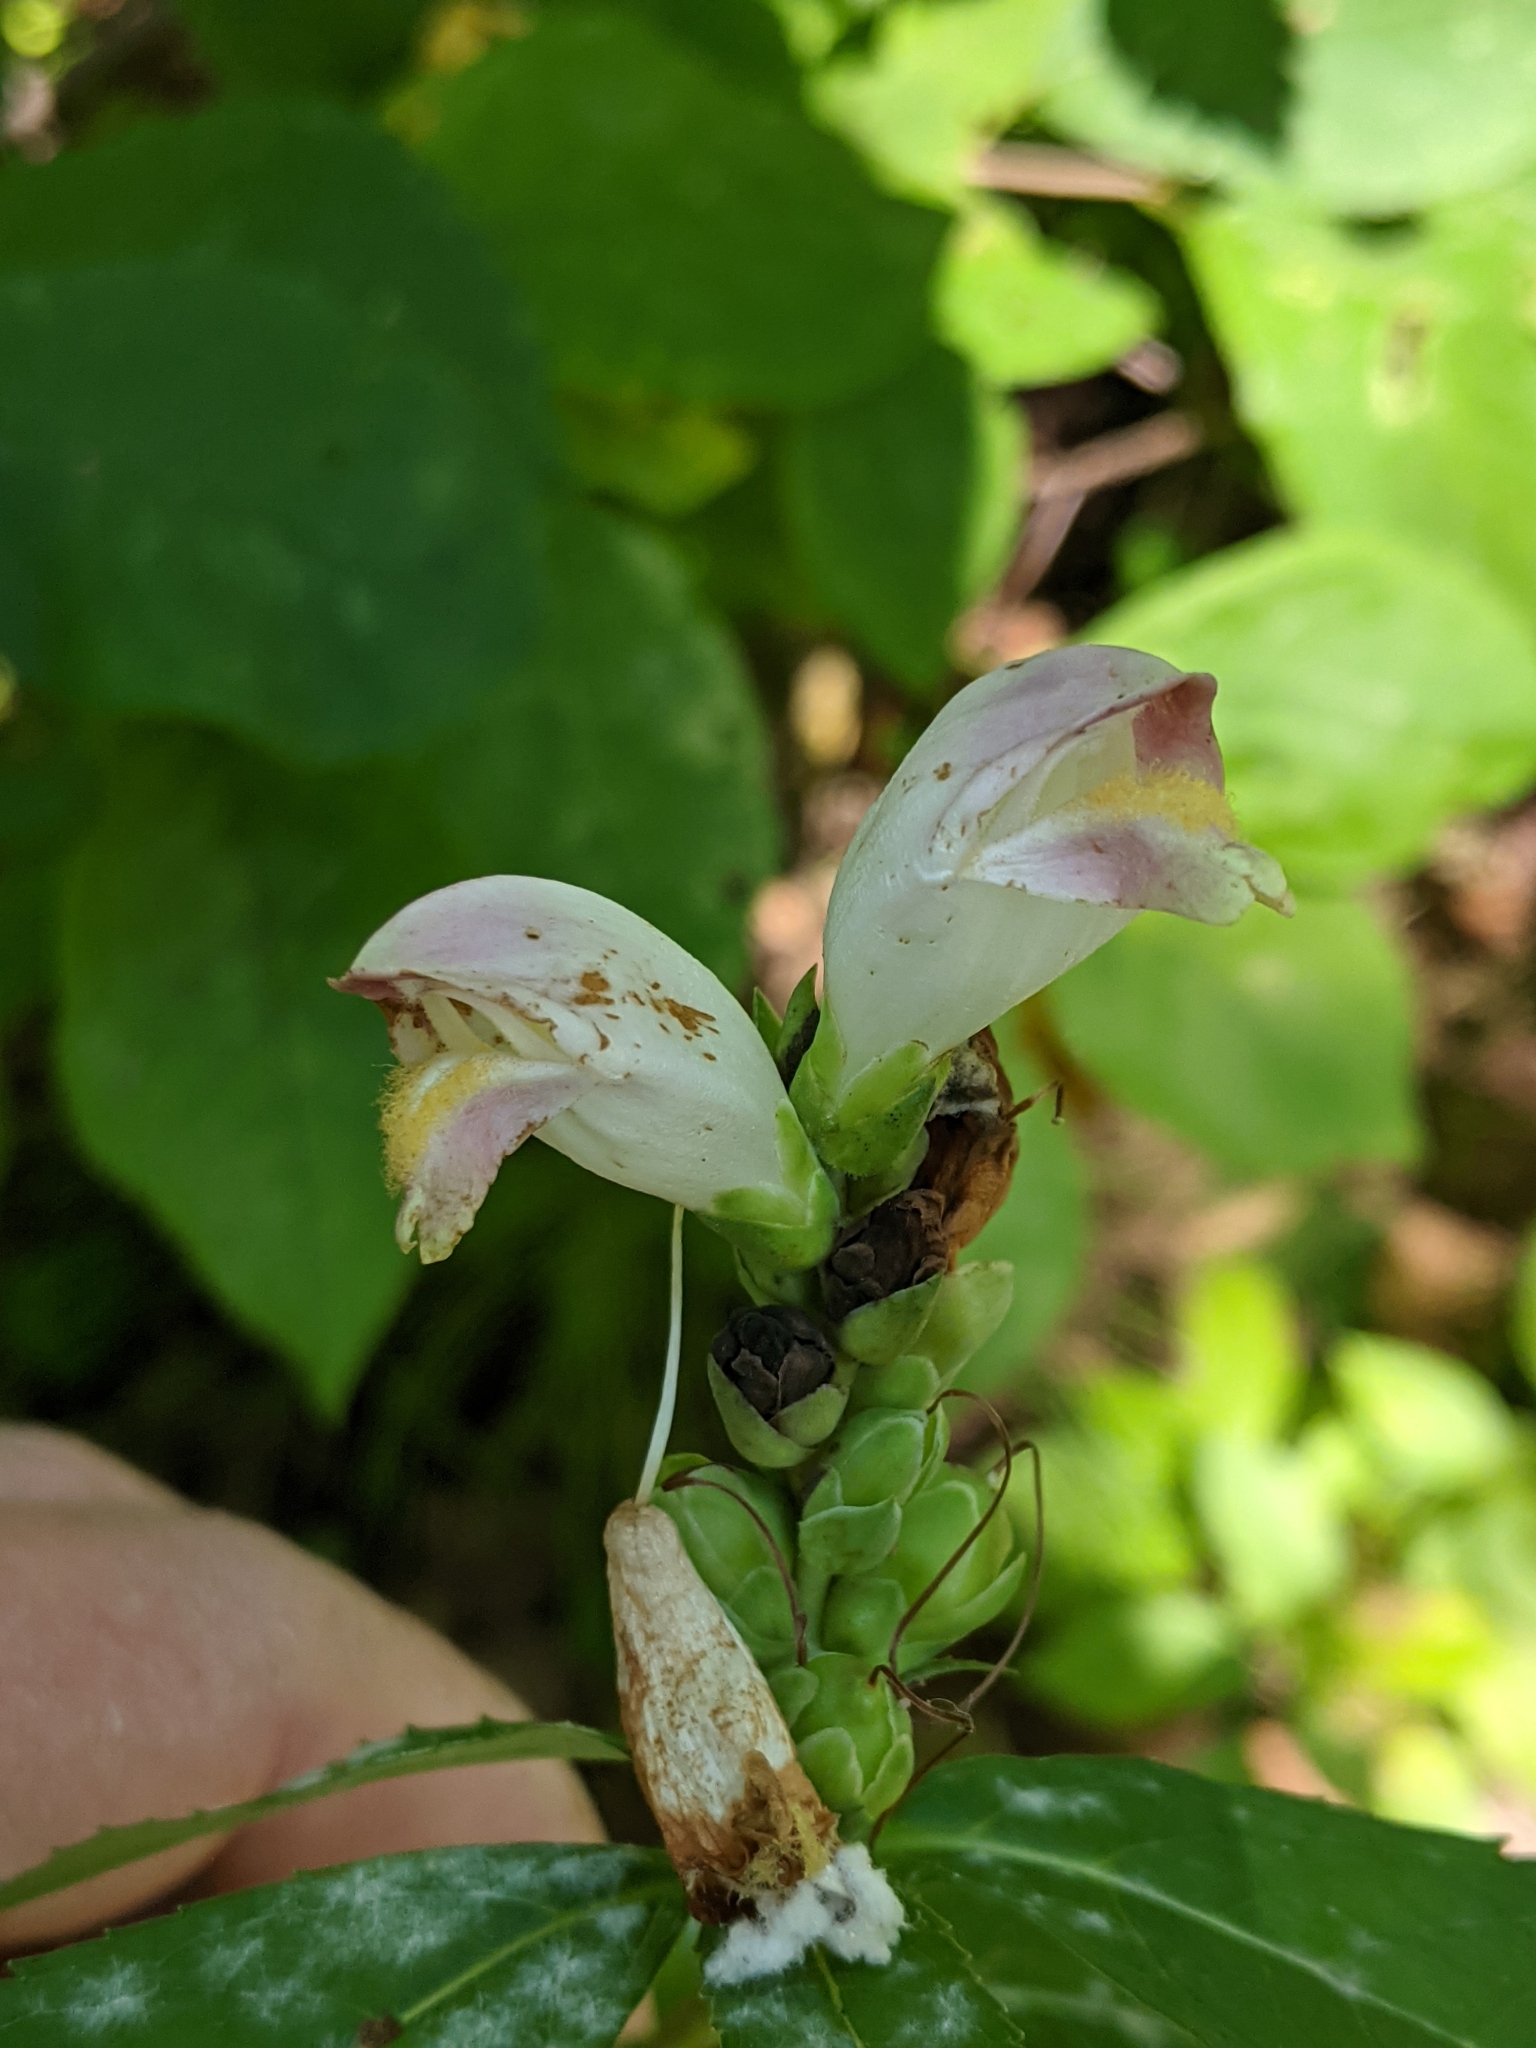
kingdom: Plantae
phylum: Tracheophyta
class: Magnoliopsida
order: Lamiales
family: Plantaginaceae
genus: Chelone
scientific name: Chelone glabra
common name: Snakehead
